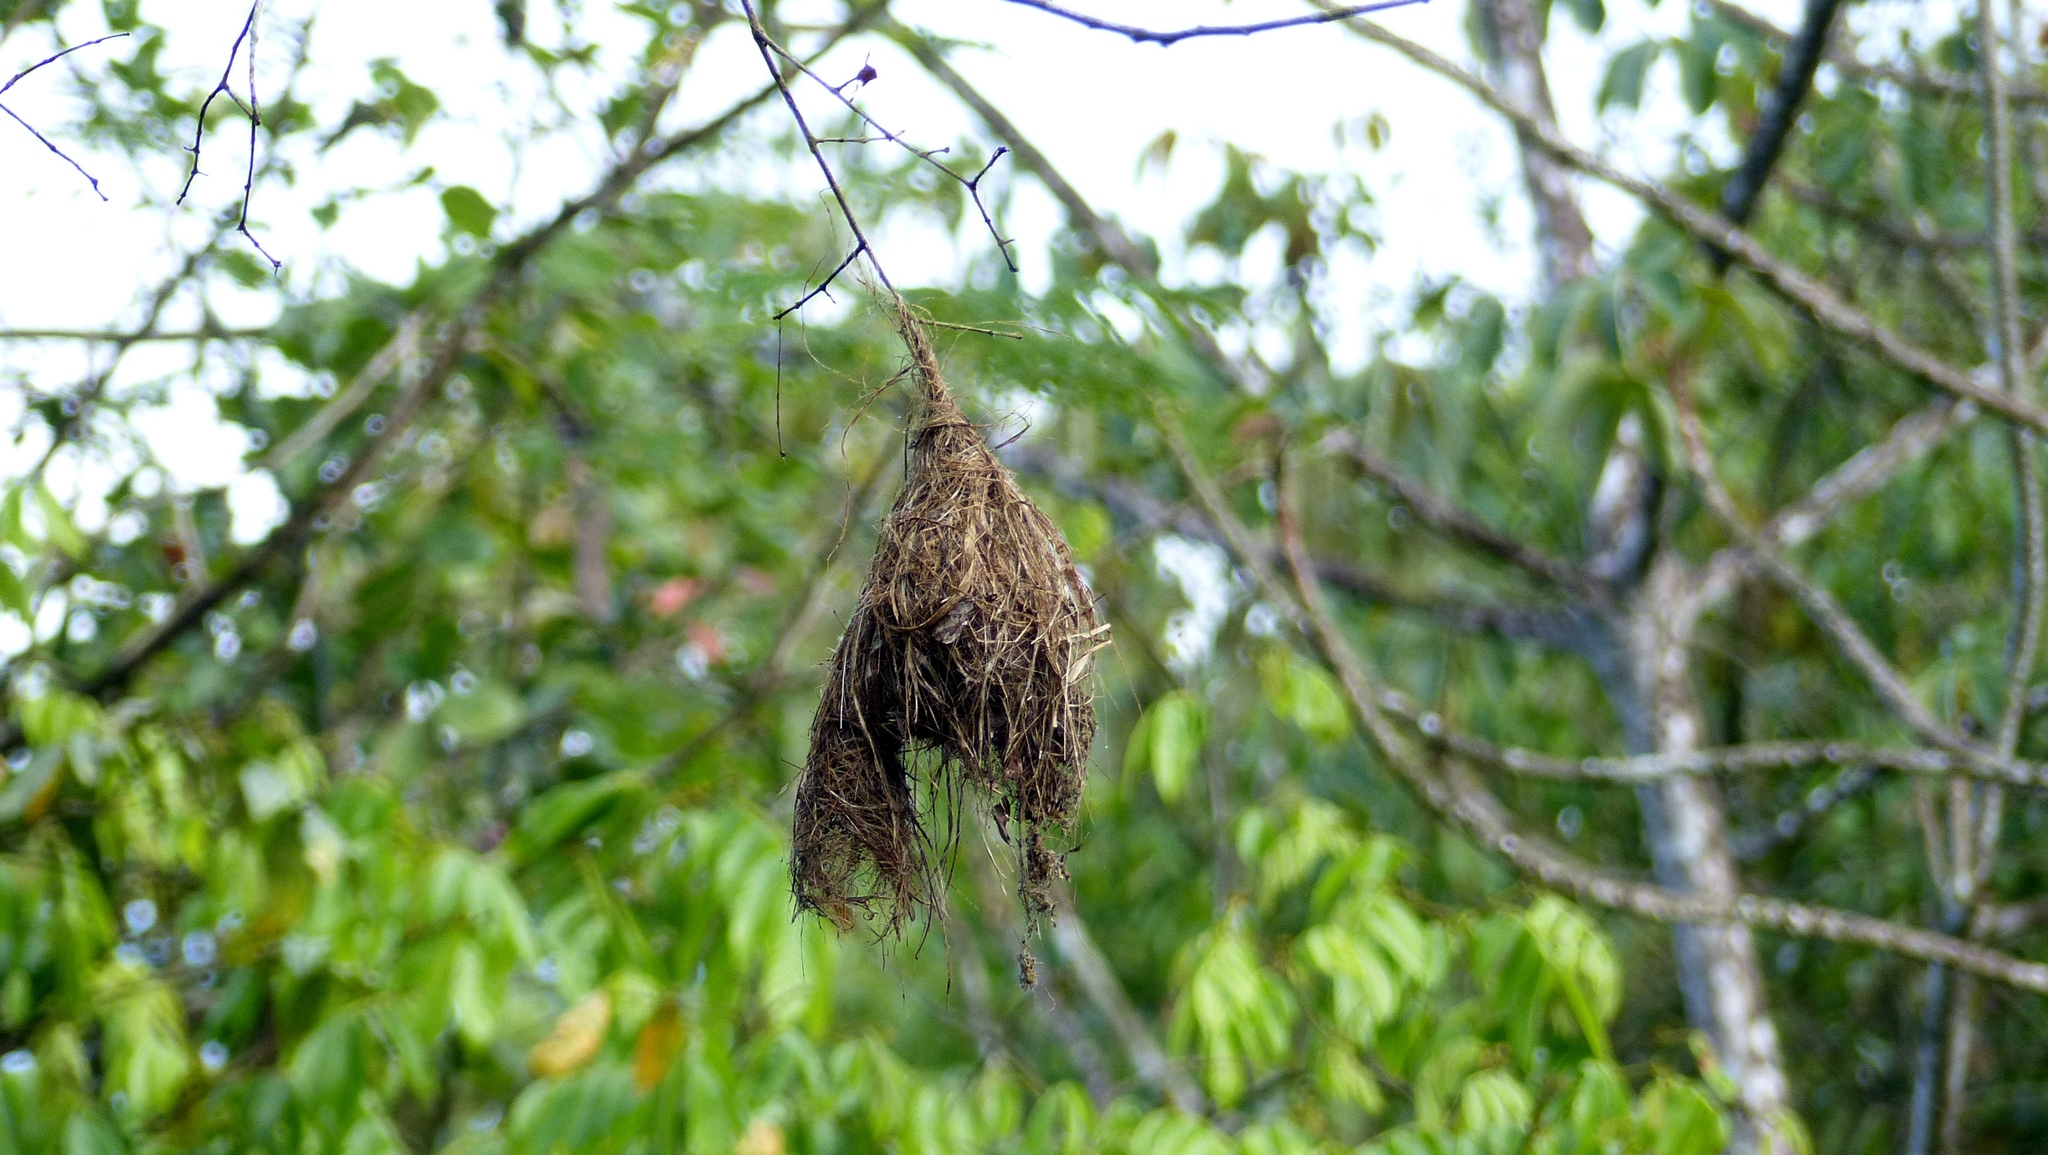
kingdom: Animalia
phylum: Chordata
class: Aves
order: Passeriformes
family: Tyrannidae
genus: Tolmomyias
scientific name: Tolmomyias flaviventris
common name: Ochre-lored flatbill
